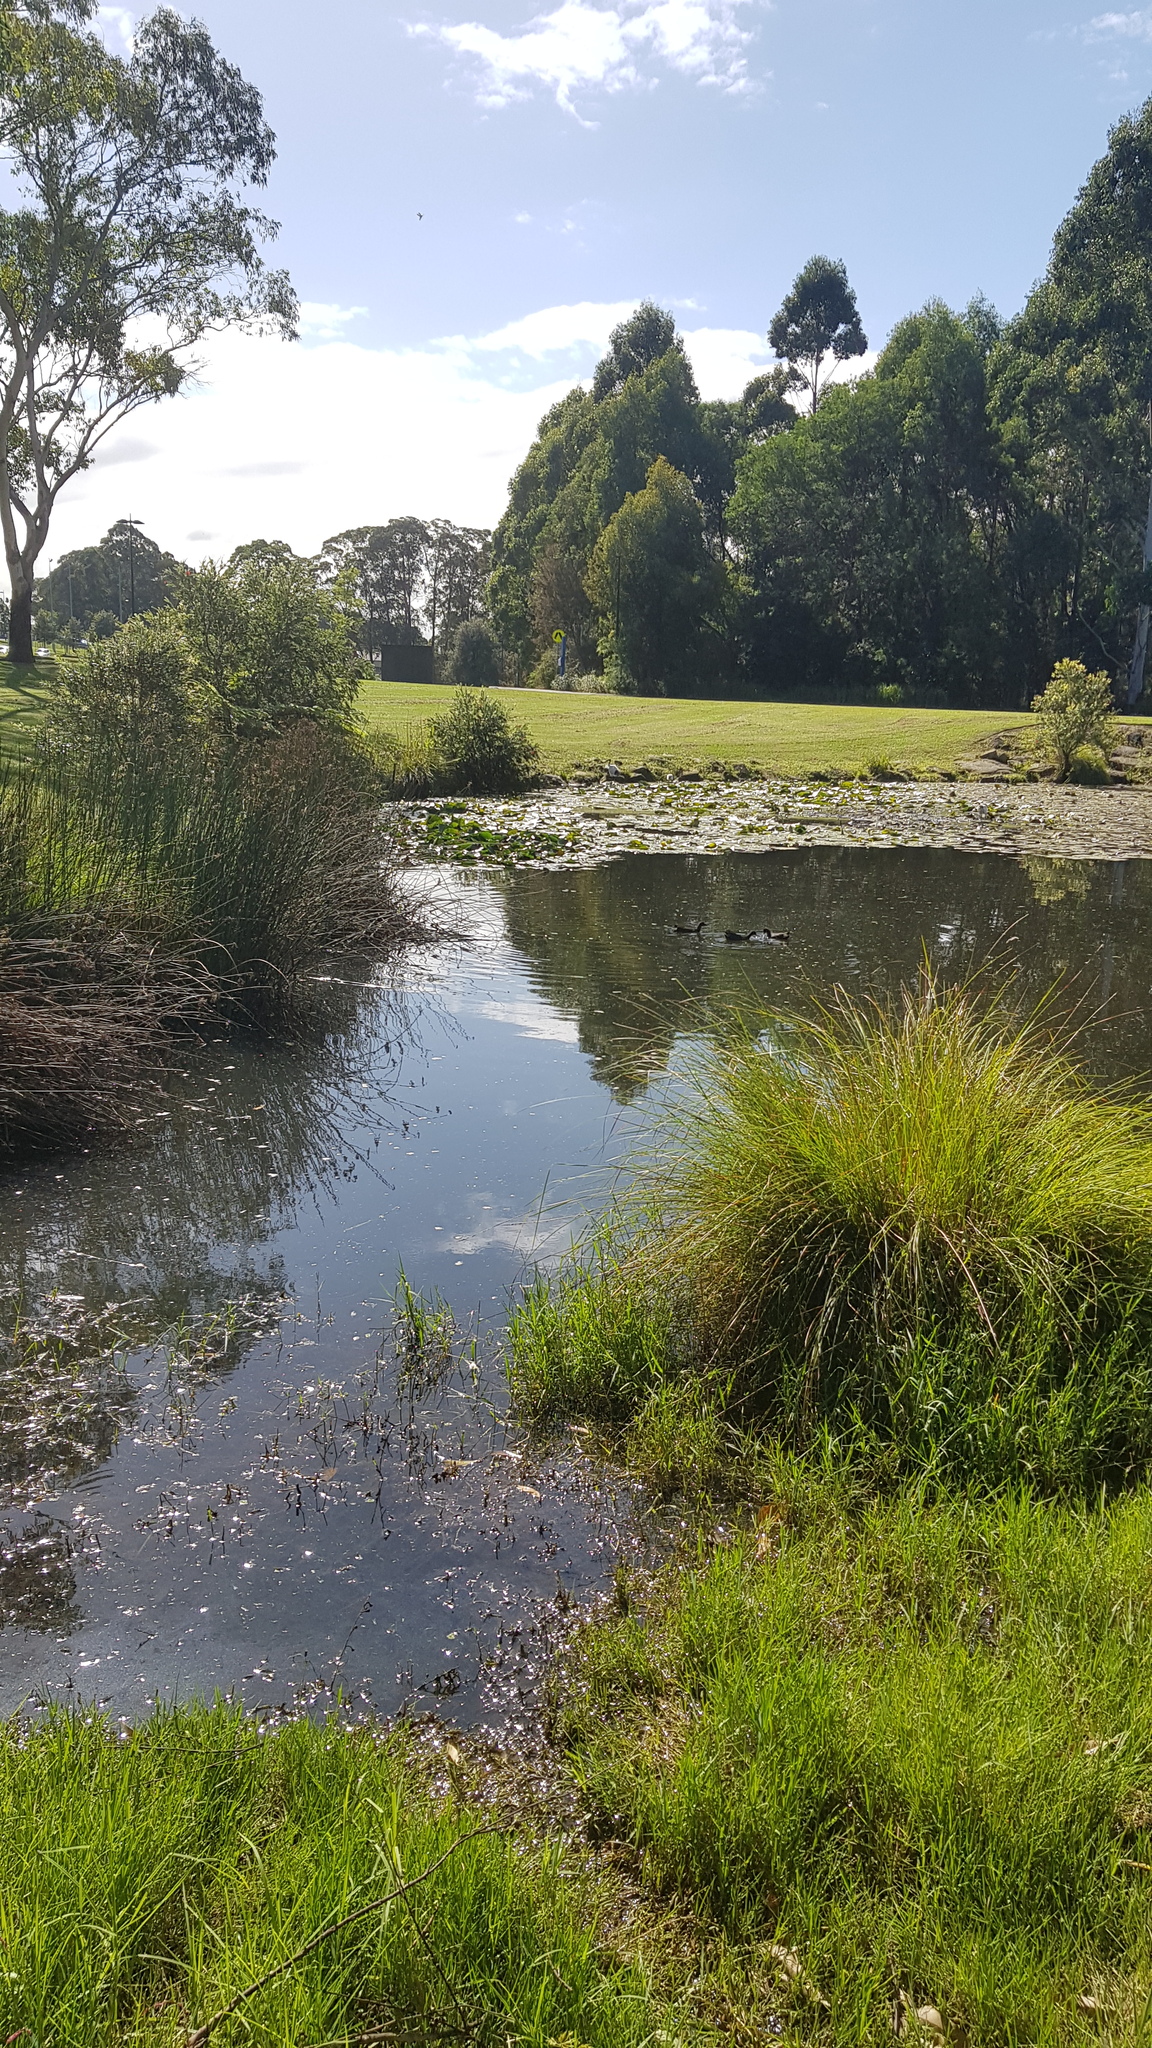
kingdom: Animalia
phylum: Chordata
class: Aves
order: Gruiformes
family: Rallidae
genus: Gallinula
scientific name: Gallinula tenebrosa
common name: Dusky moorhen
